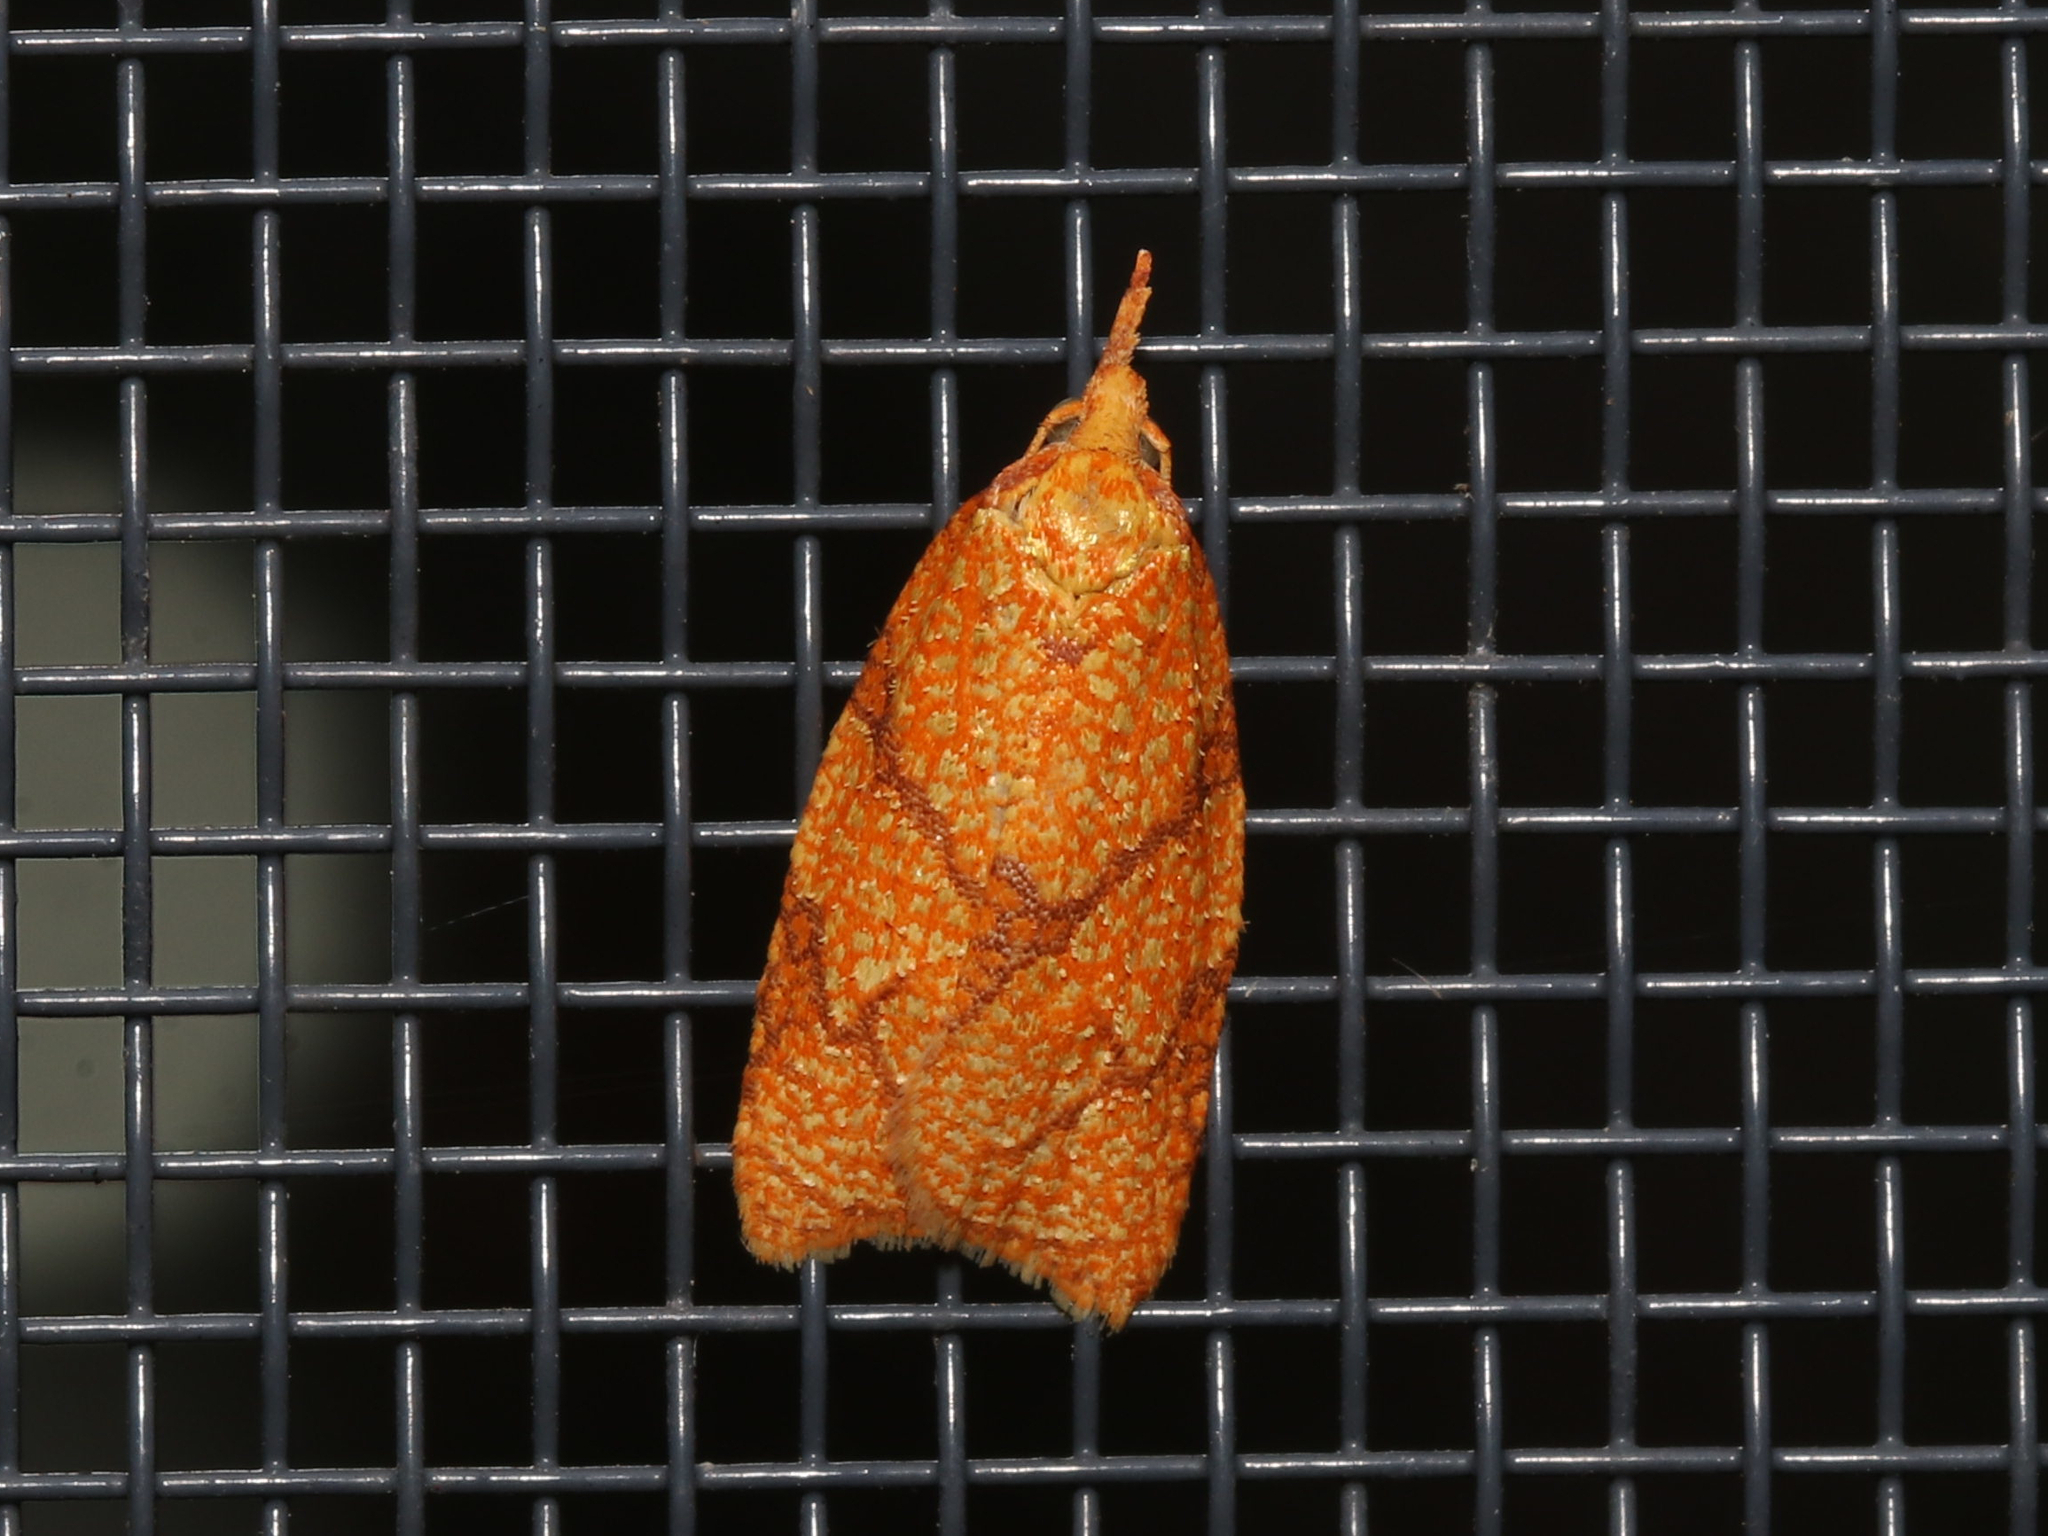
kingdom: Animalia
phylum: Arthropoda
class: Insecta
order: Lepidoptera
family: Tortricidae
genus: Cenopis
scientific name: Cenopis reticulatana
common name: Reticulated fruitworm moth
